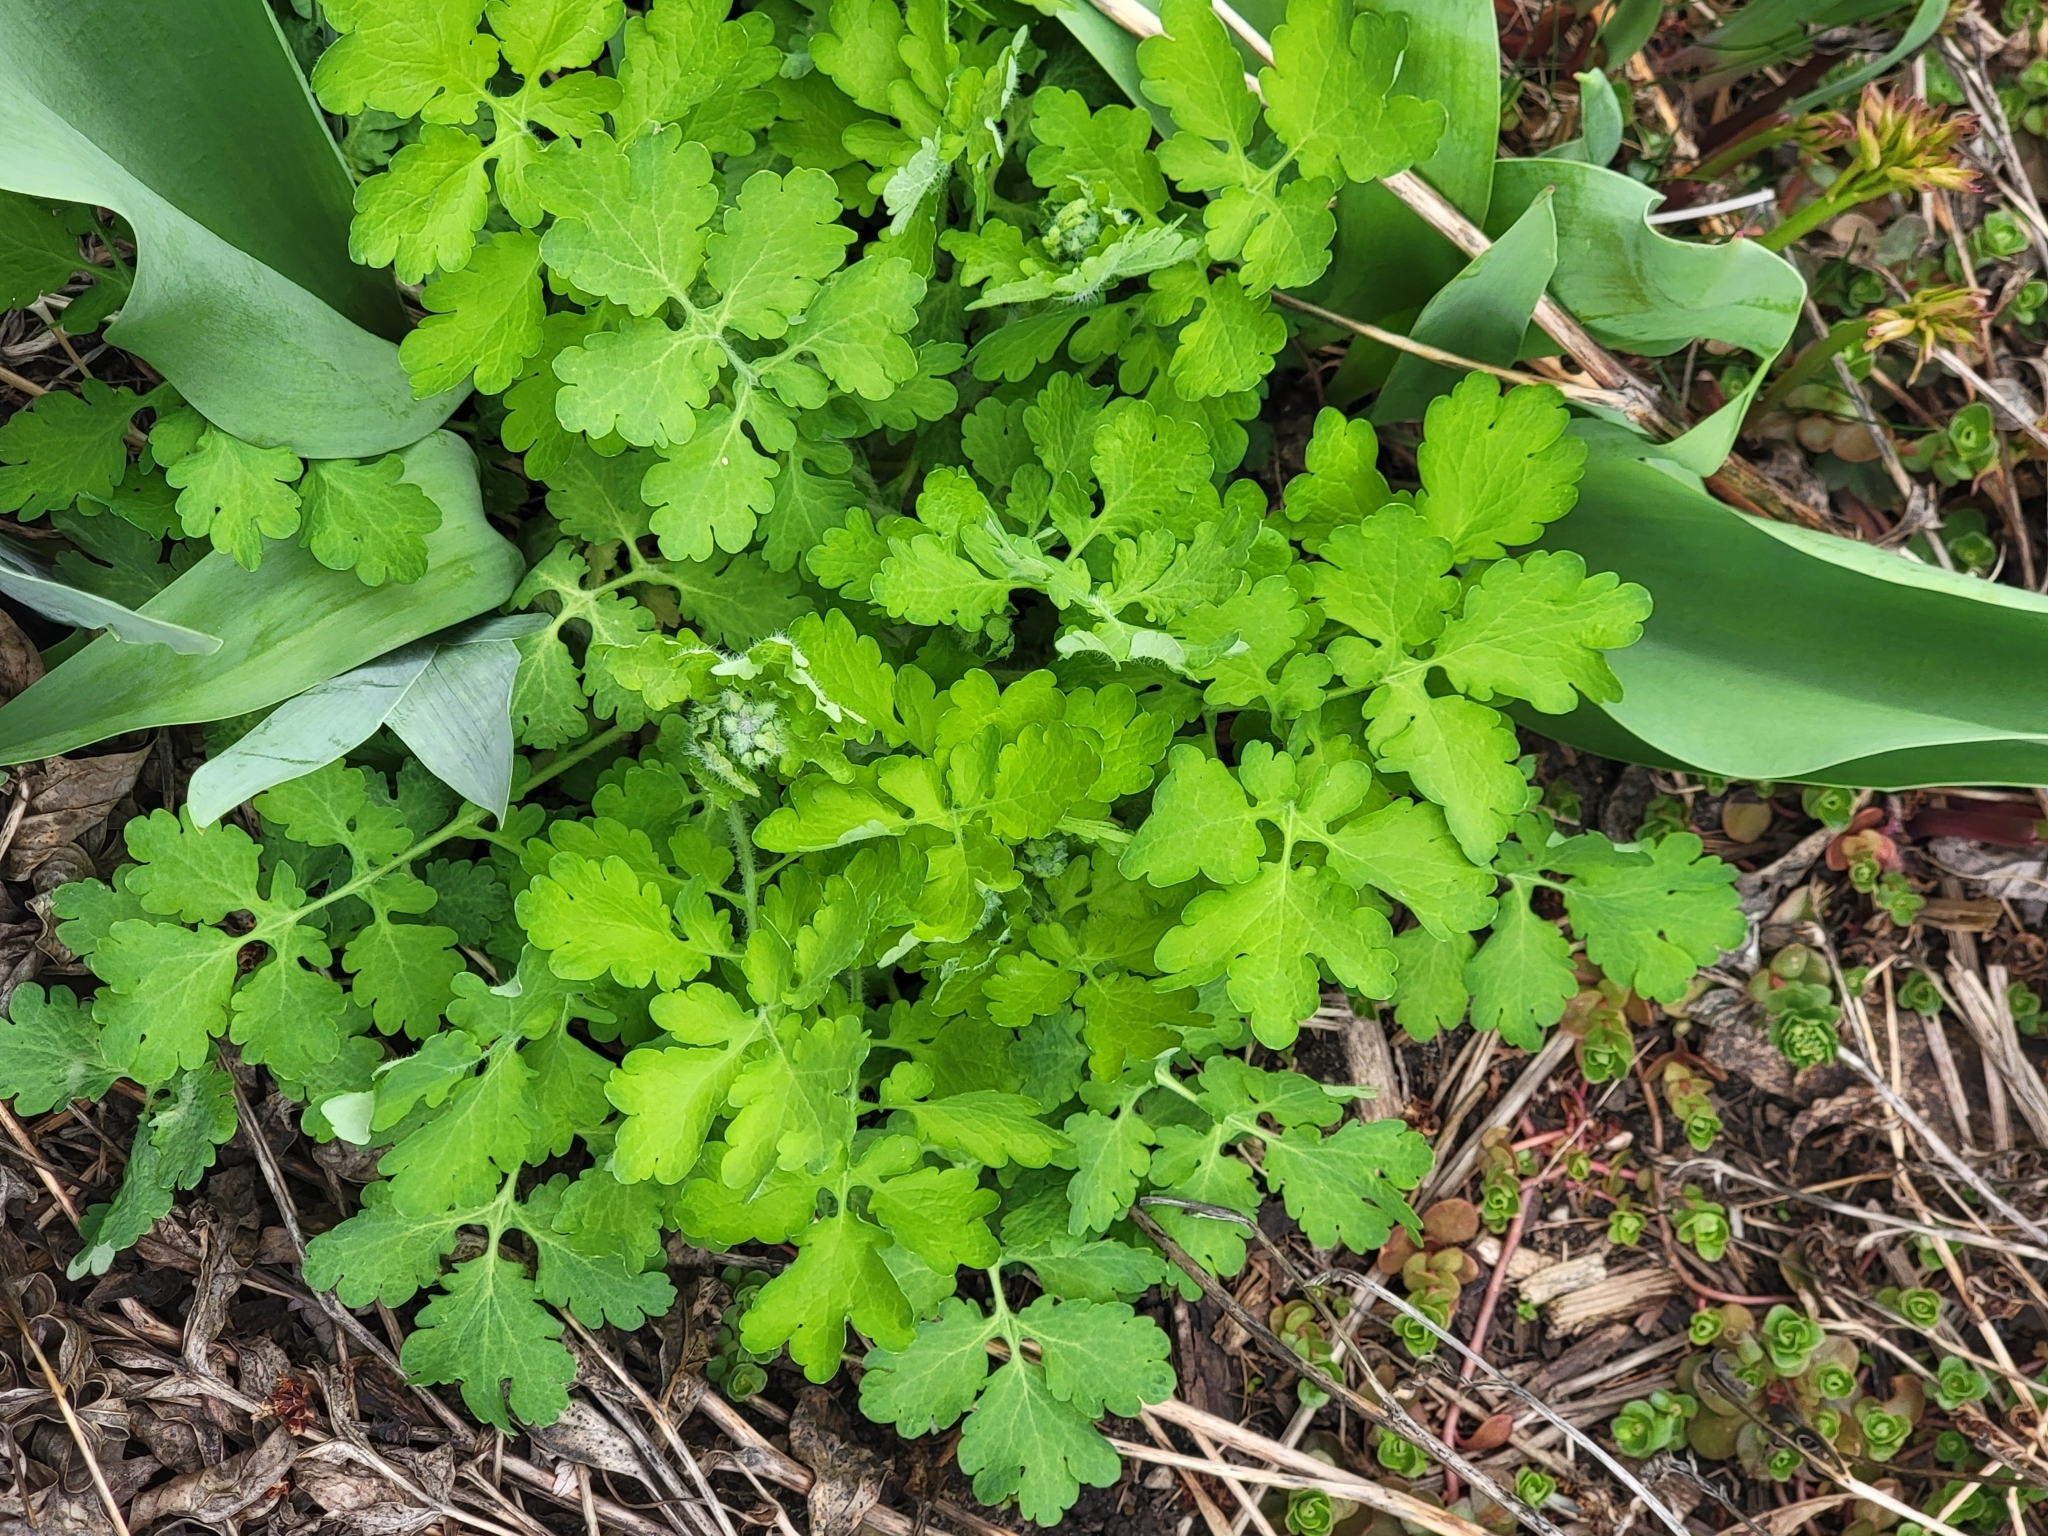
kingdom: Plantae
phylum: Tracheophyta
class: Magnoliopsida
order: Ranunculales
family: Papaveraceae
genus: Chelidonium
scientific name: Chelidonium majus
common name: Greater celandine
